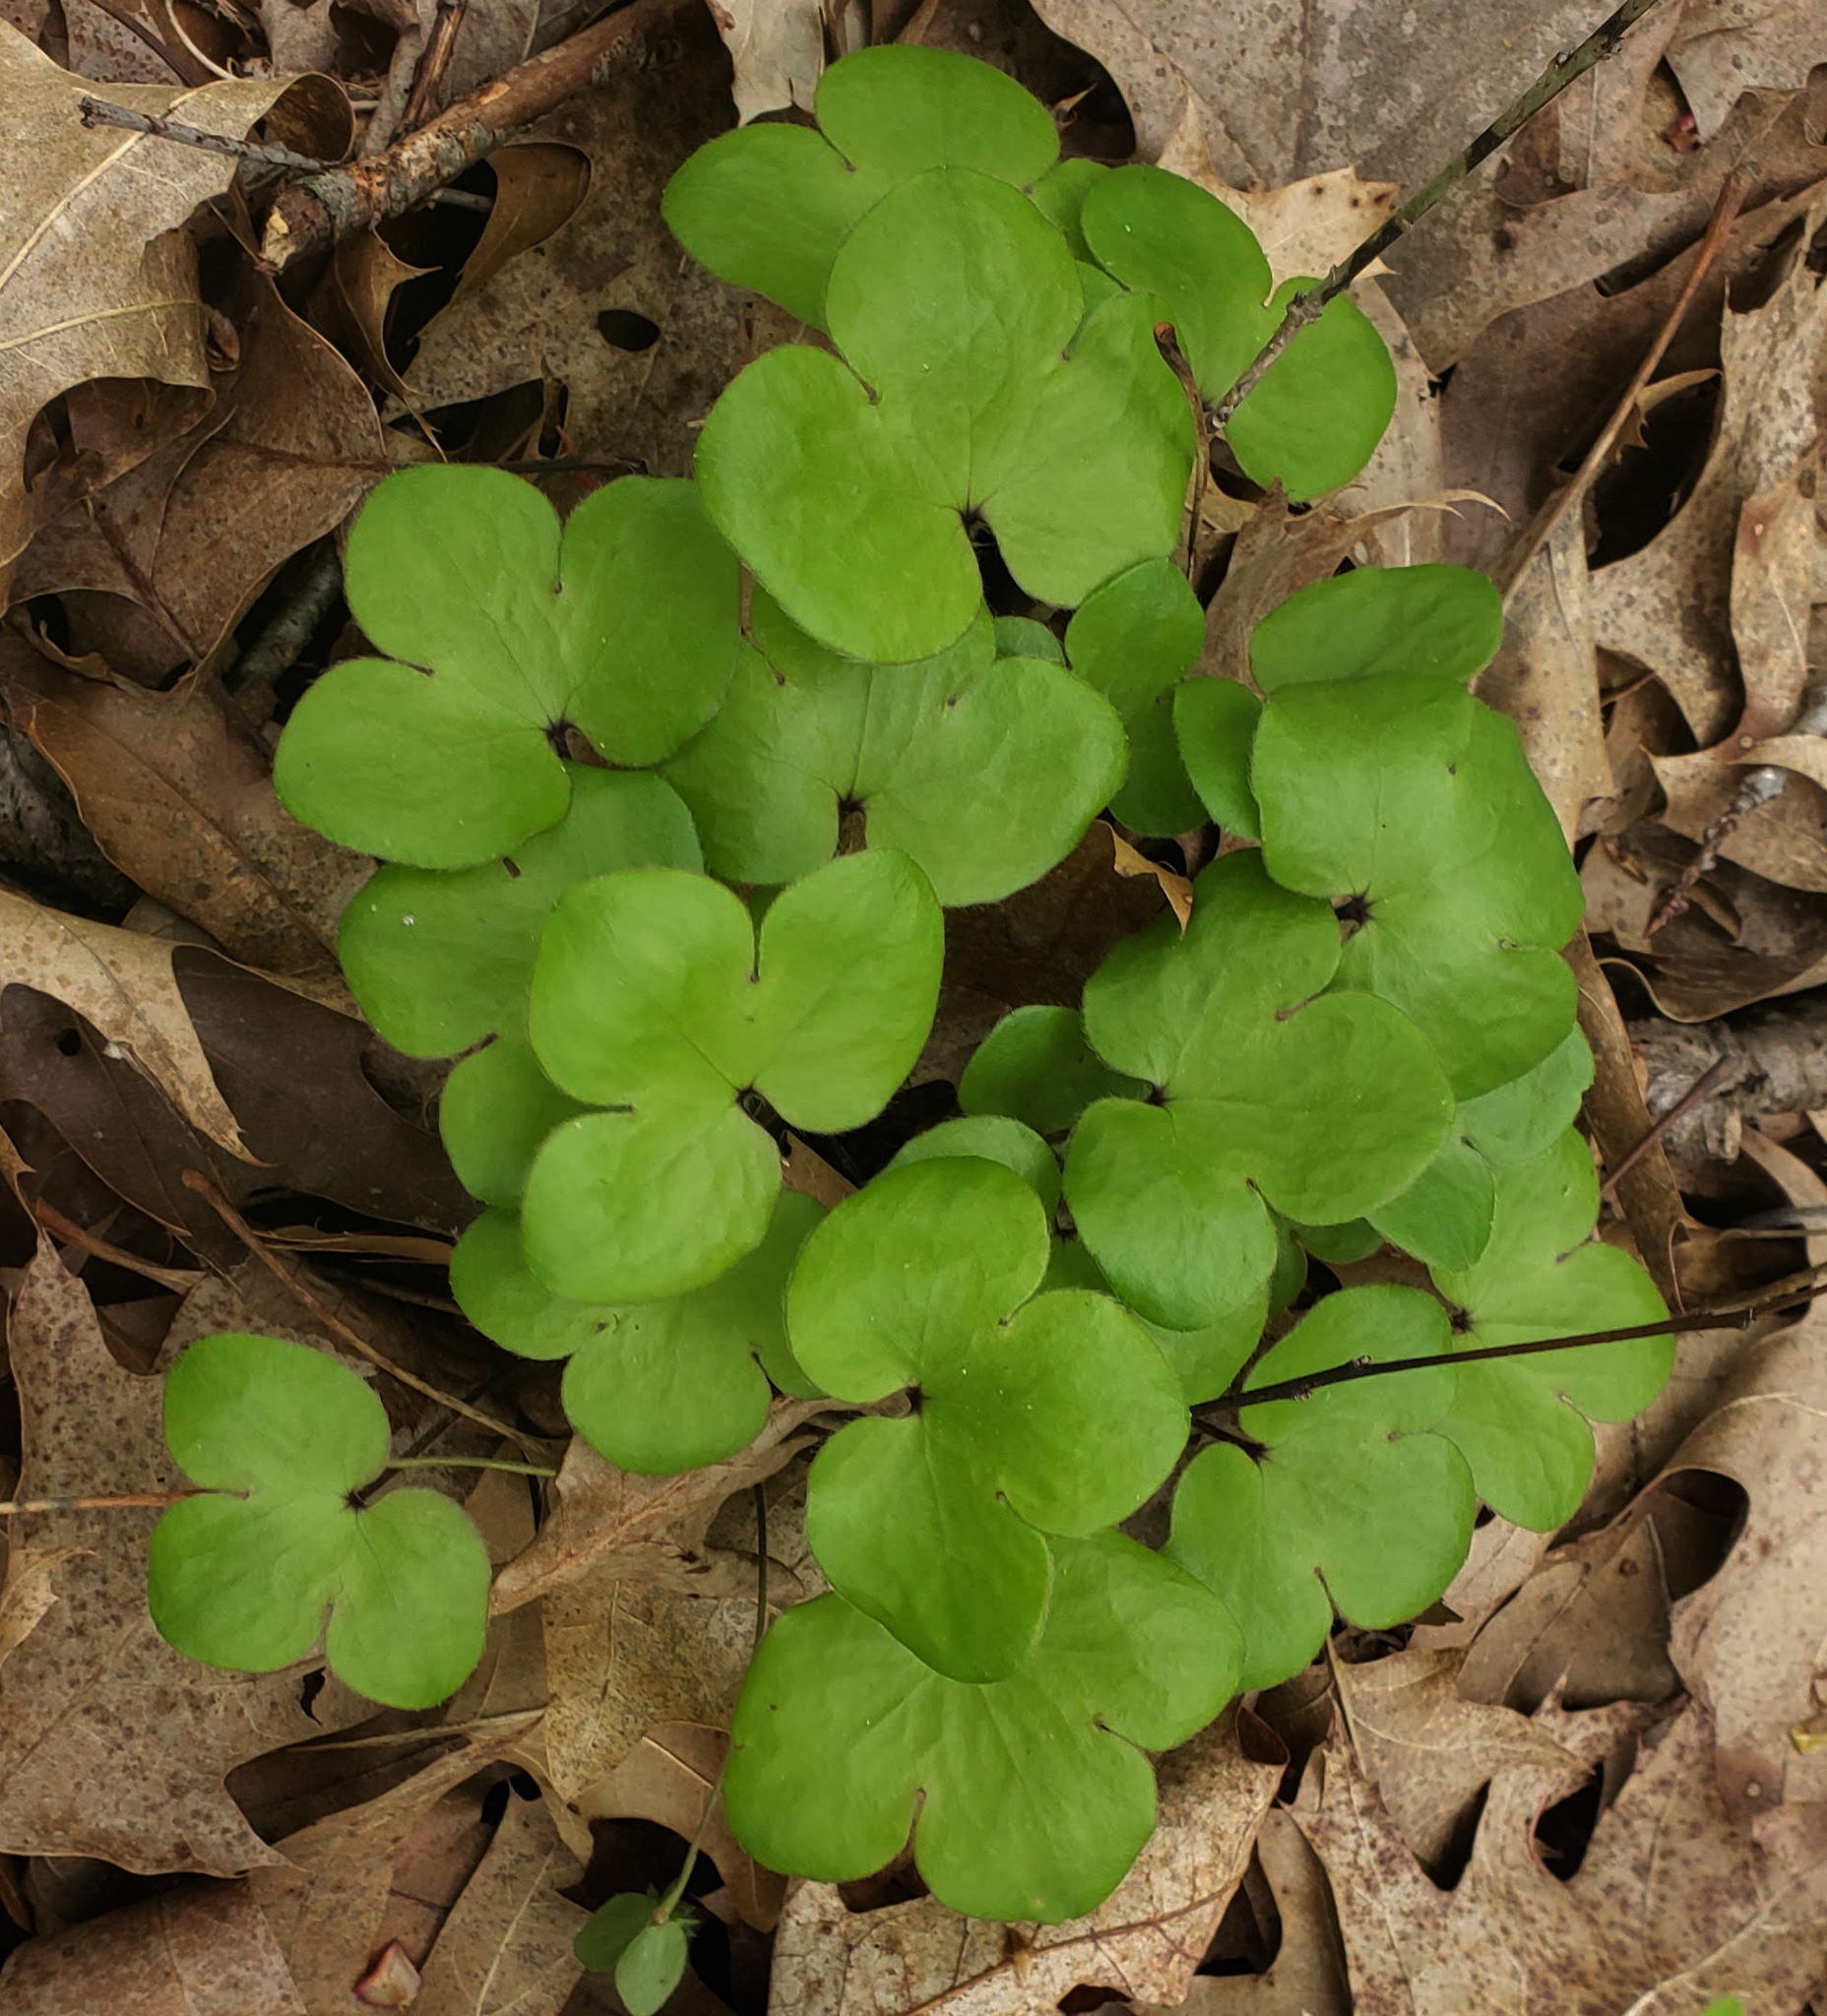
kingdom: Plantae
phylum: Tracheophyta
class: Magnoliopsida
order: Ranunculales
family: Ranunculaceae
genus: Hepatica
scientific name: Hepatica americana
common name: American hepatica
